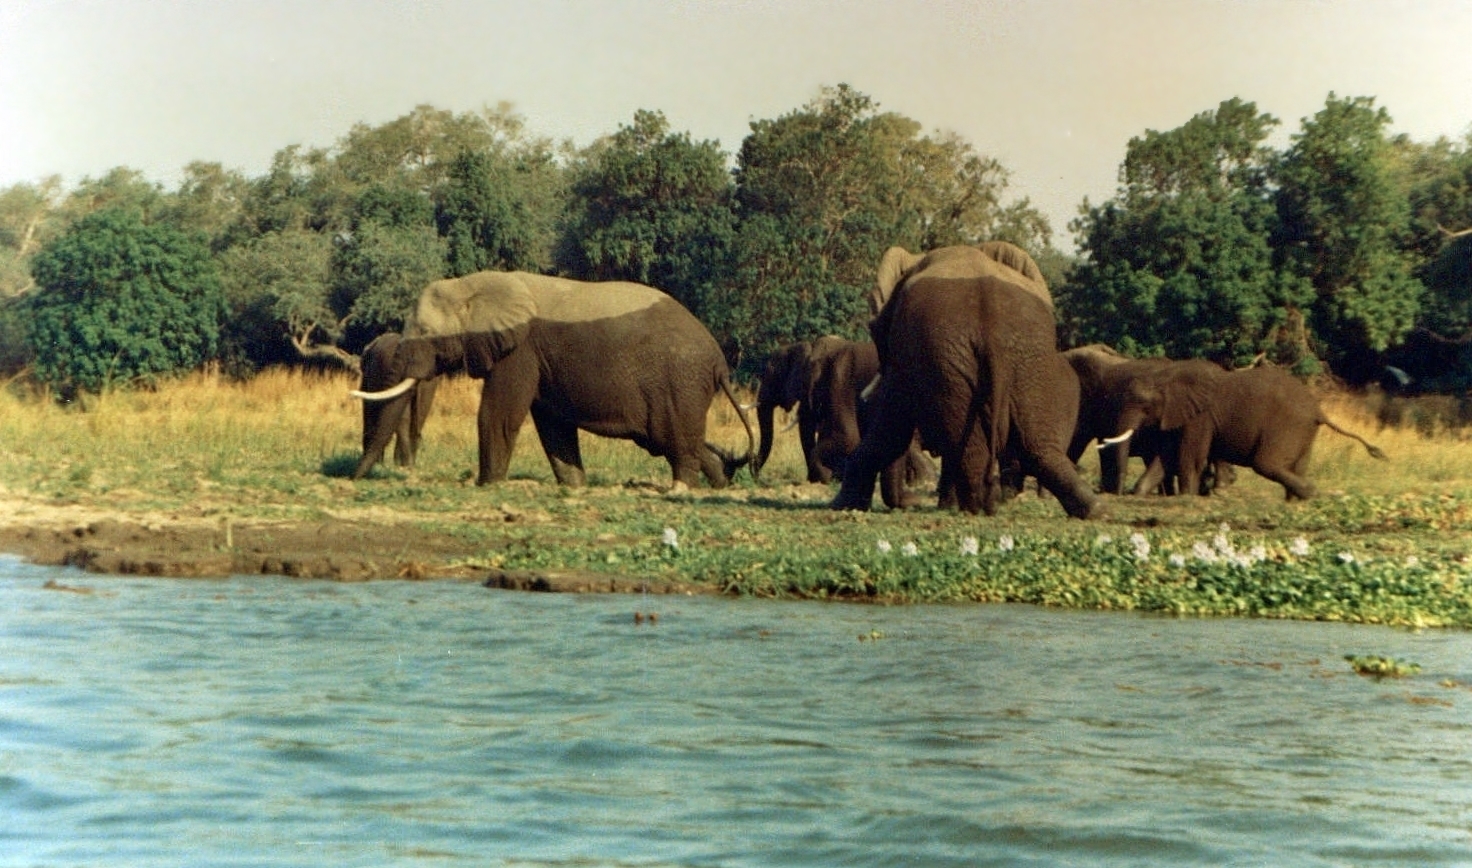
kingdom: Animalia
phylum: Chordata
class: Mammalia
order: Proboscidea
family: Elephantidae
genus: Loxodonta
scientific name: Loxodonta africana
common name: African elephant
